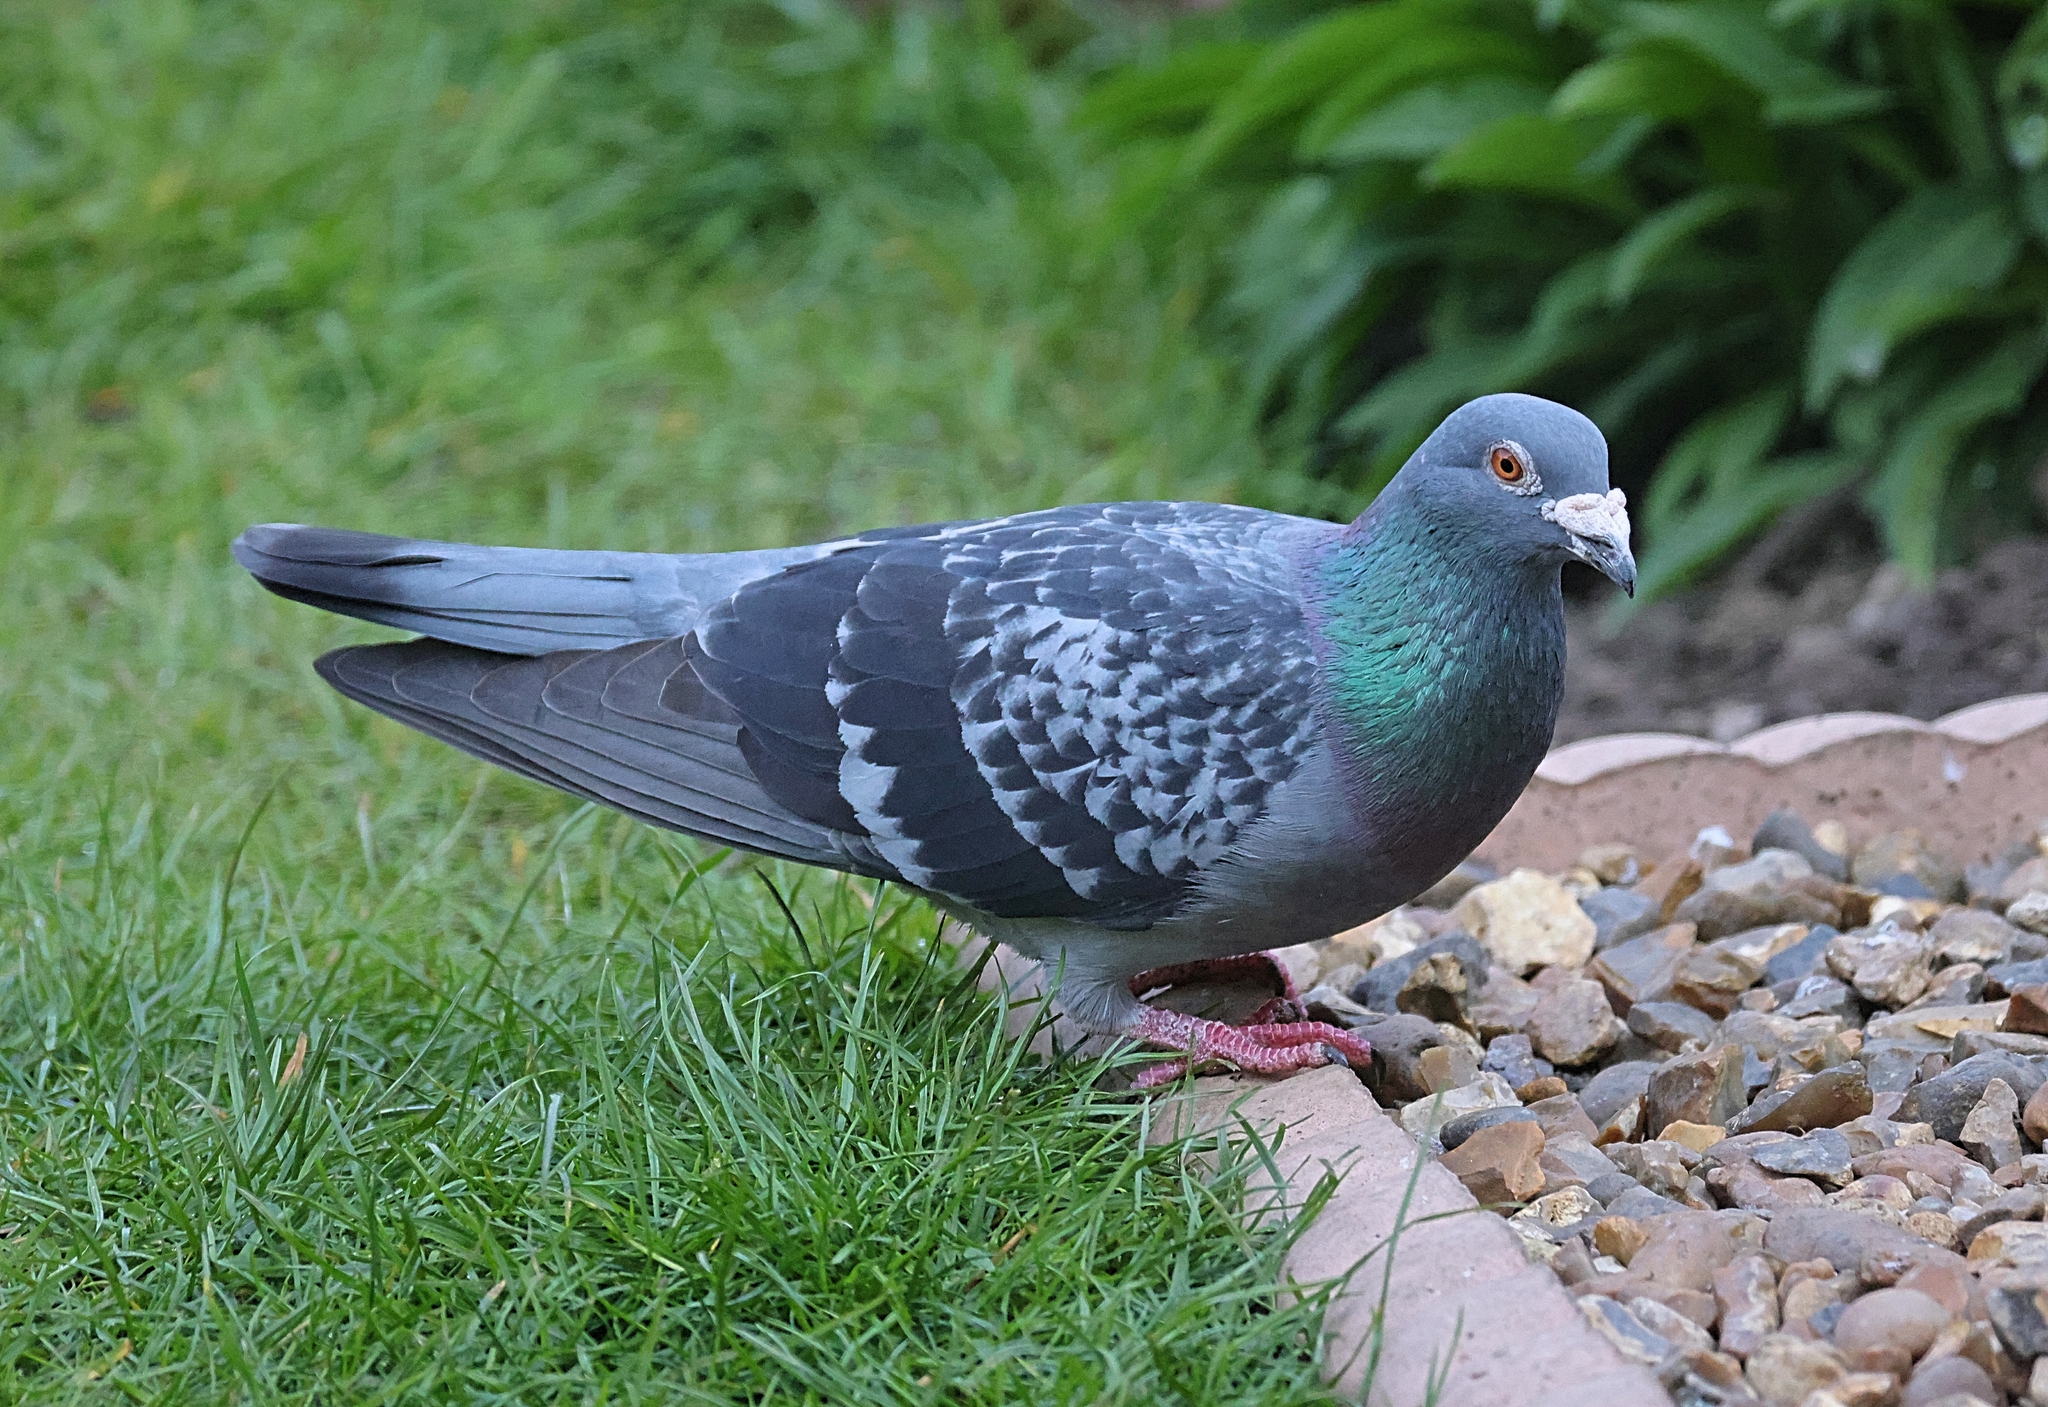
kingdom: Animalia
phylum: Chordata
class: Aves
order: Columbiformes
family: Columbidae
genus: Columba
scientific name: Columba livia
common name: Rock pigeon
